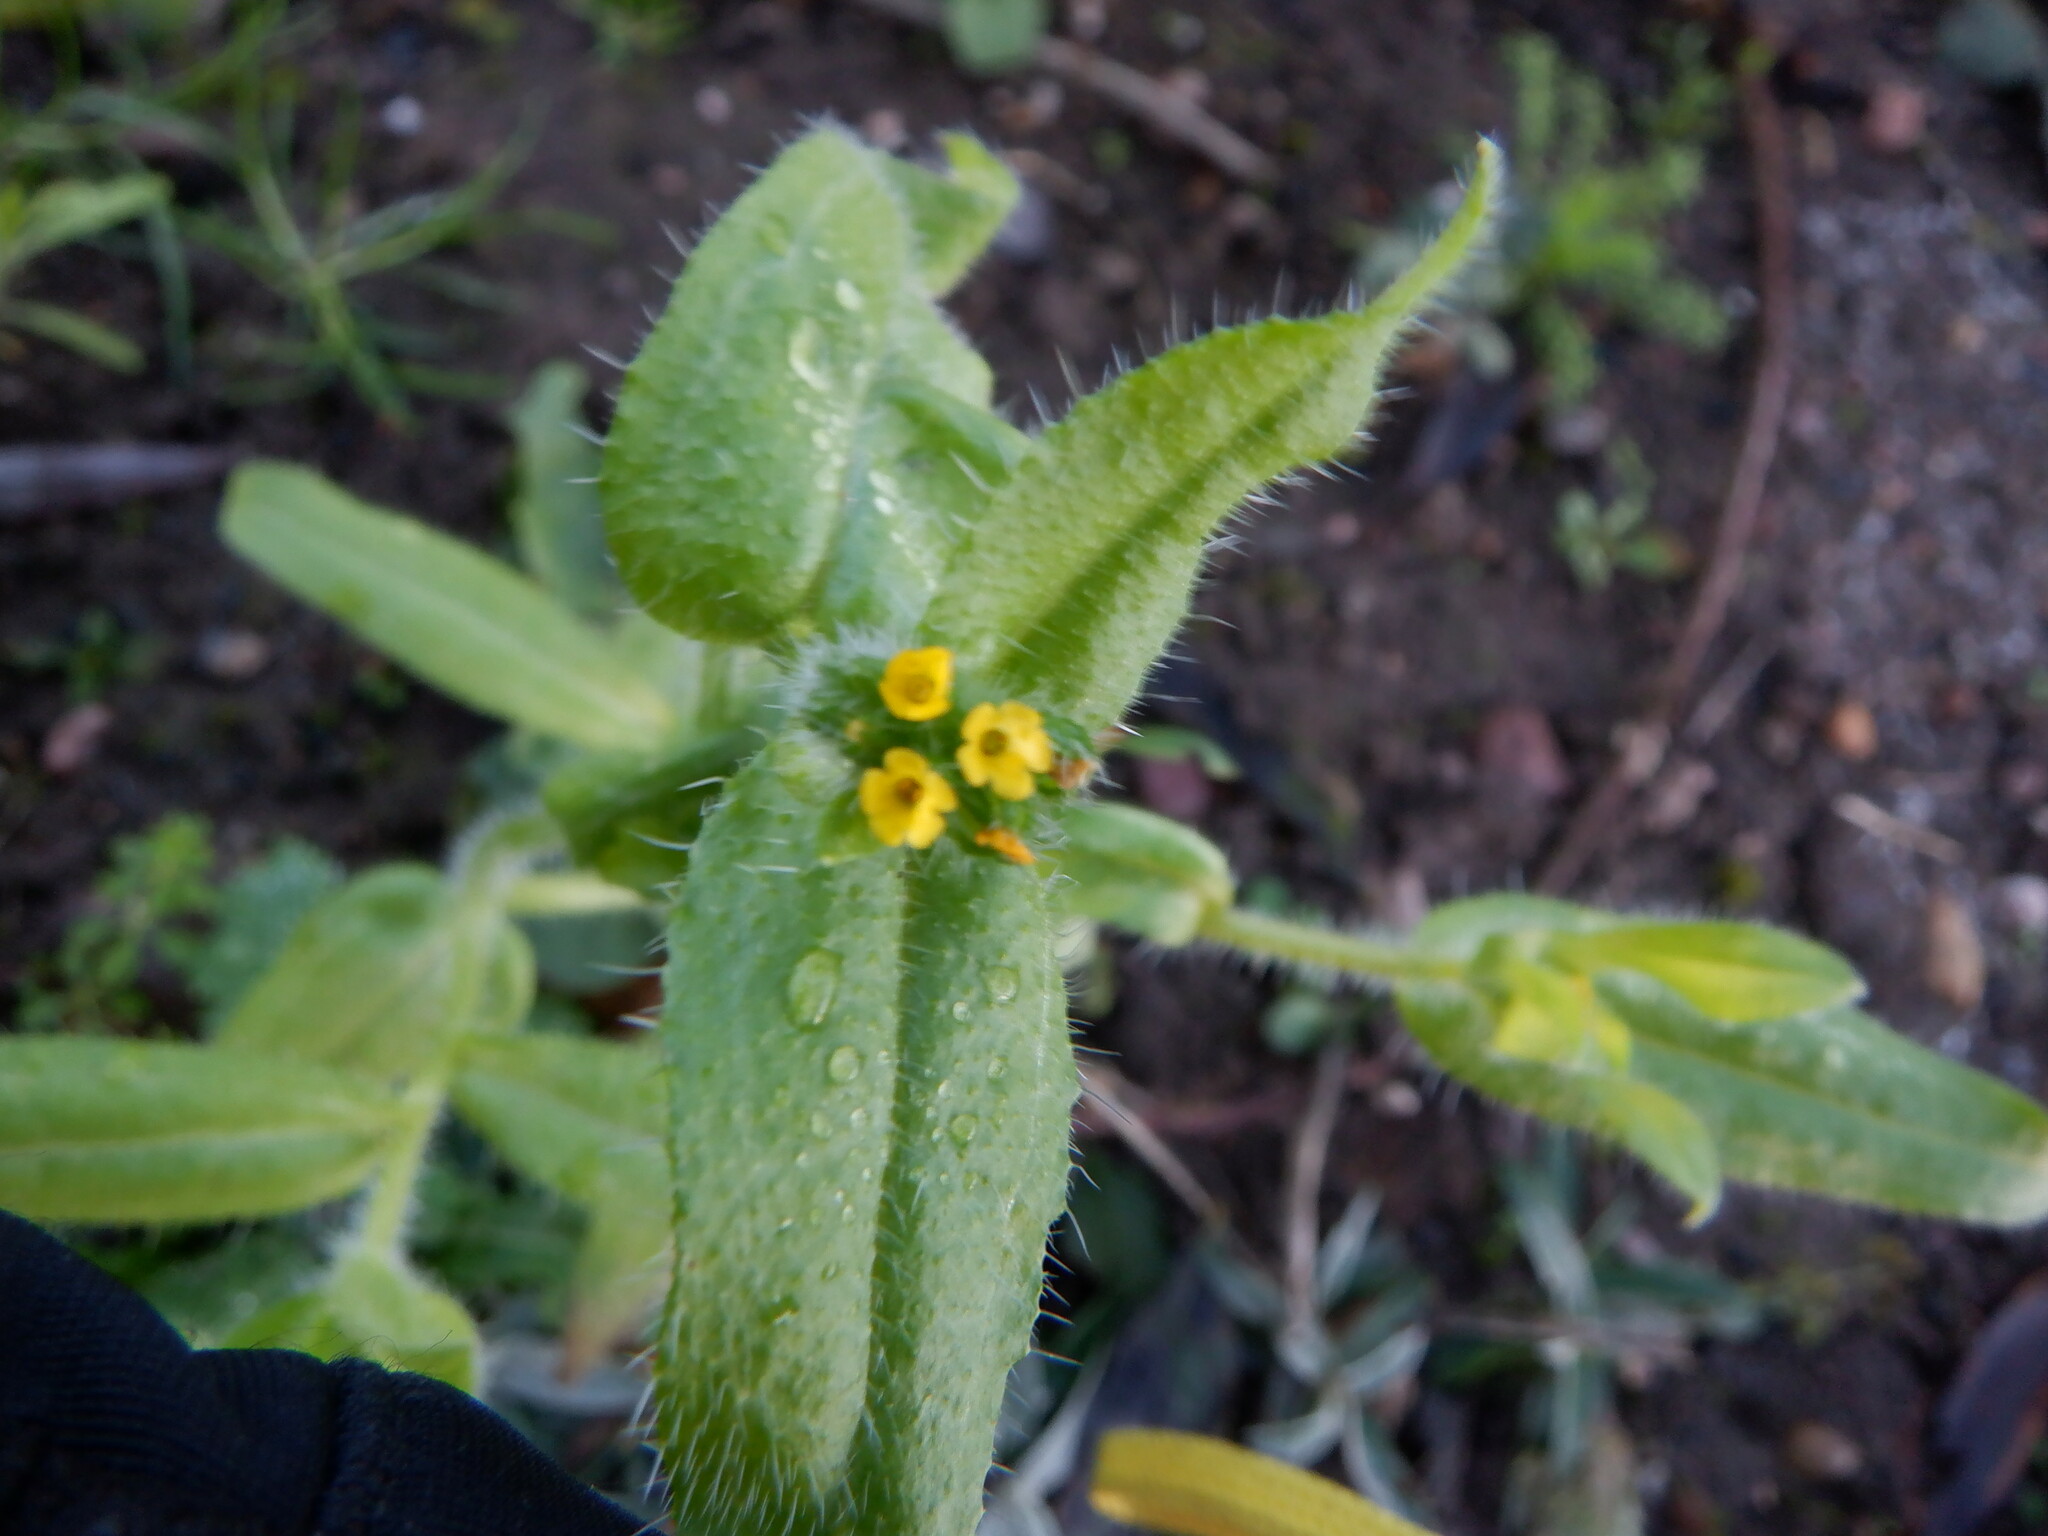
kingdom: Plantae
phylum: Tracheophyta
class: Magnoliopsida
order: Boraginales
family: Boraginaceae
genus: Amsinckia
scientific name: Amsinckia menziesii
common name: Menzies' fiddleneck
